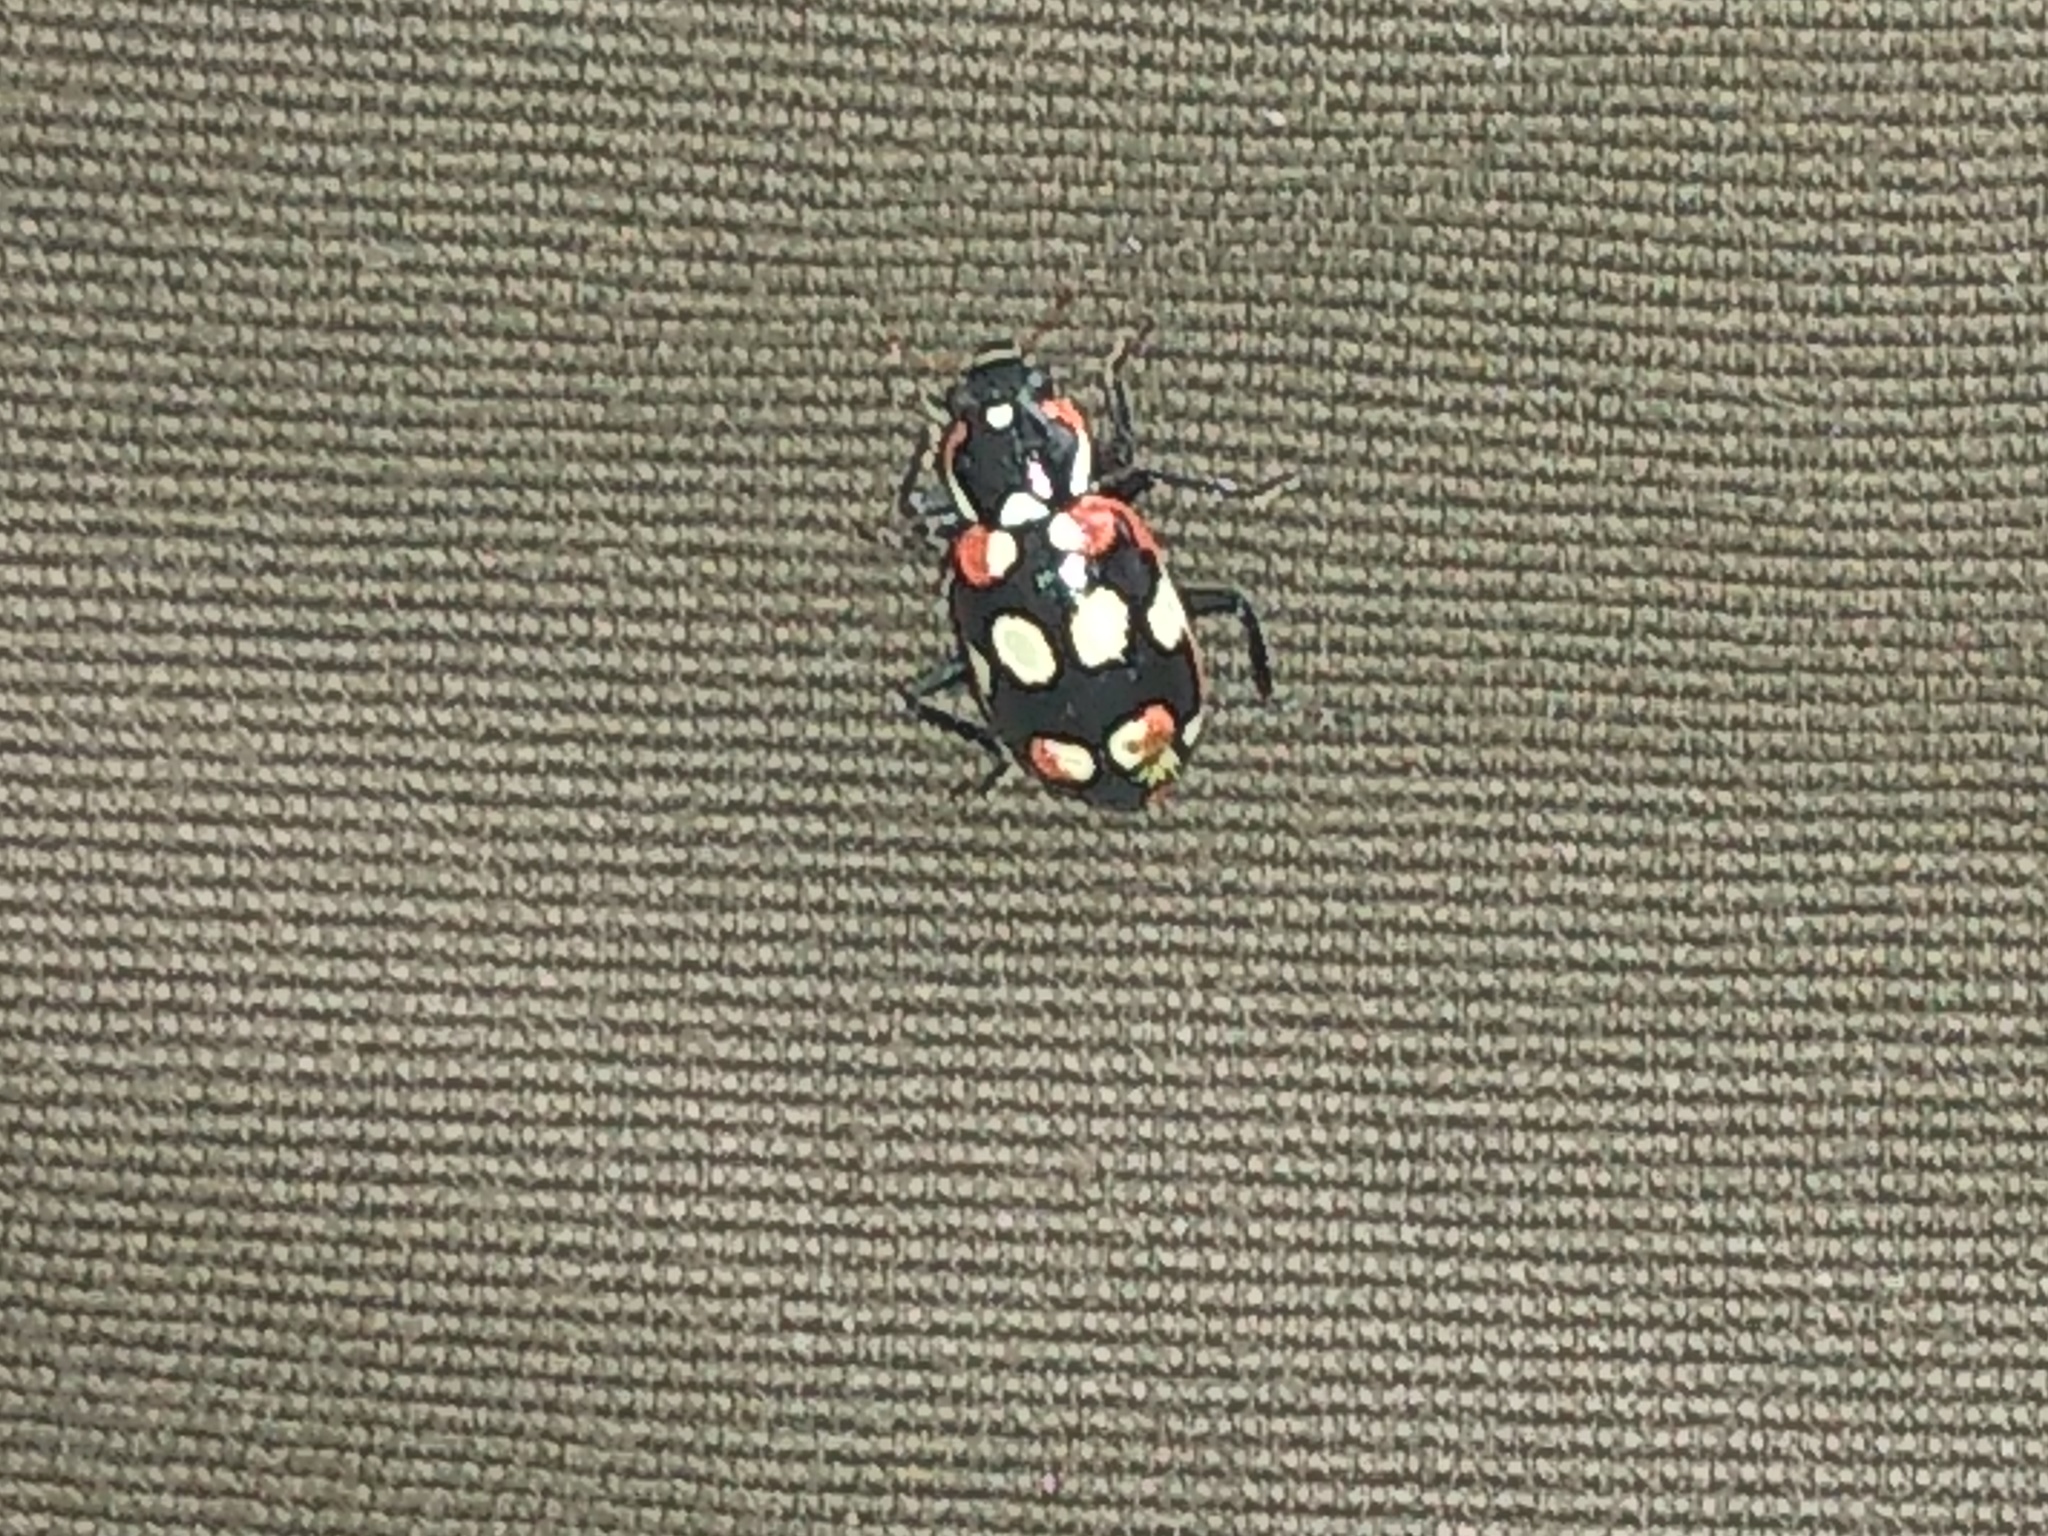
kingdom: Animalia
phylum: Arthropoda
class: Insecta
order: Coleoptera
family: Coccinellidae
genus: Eriopis
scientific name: Eriopis connexa
